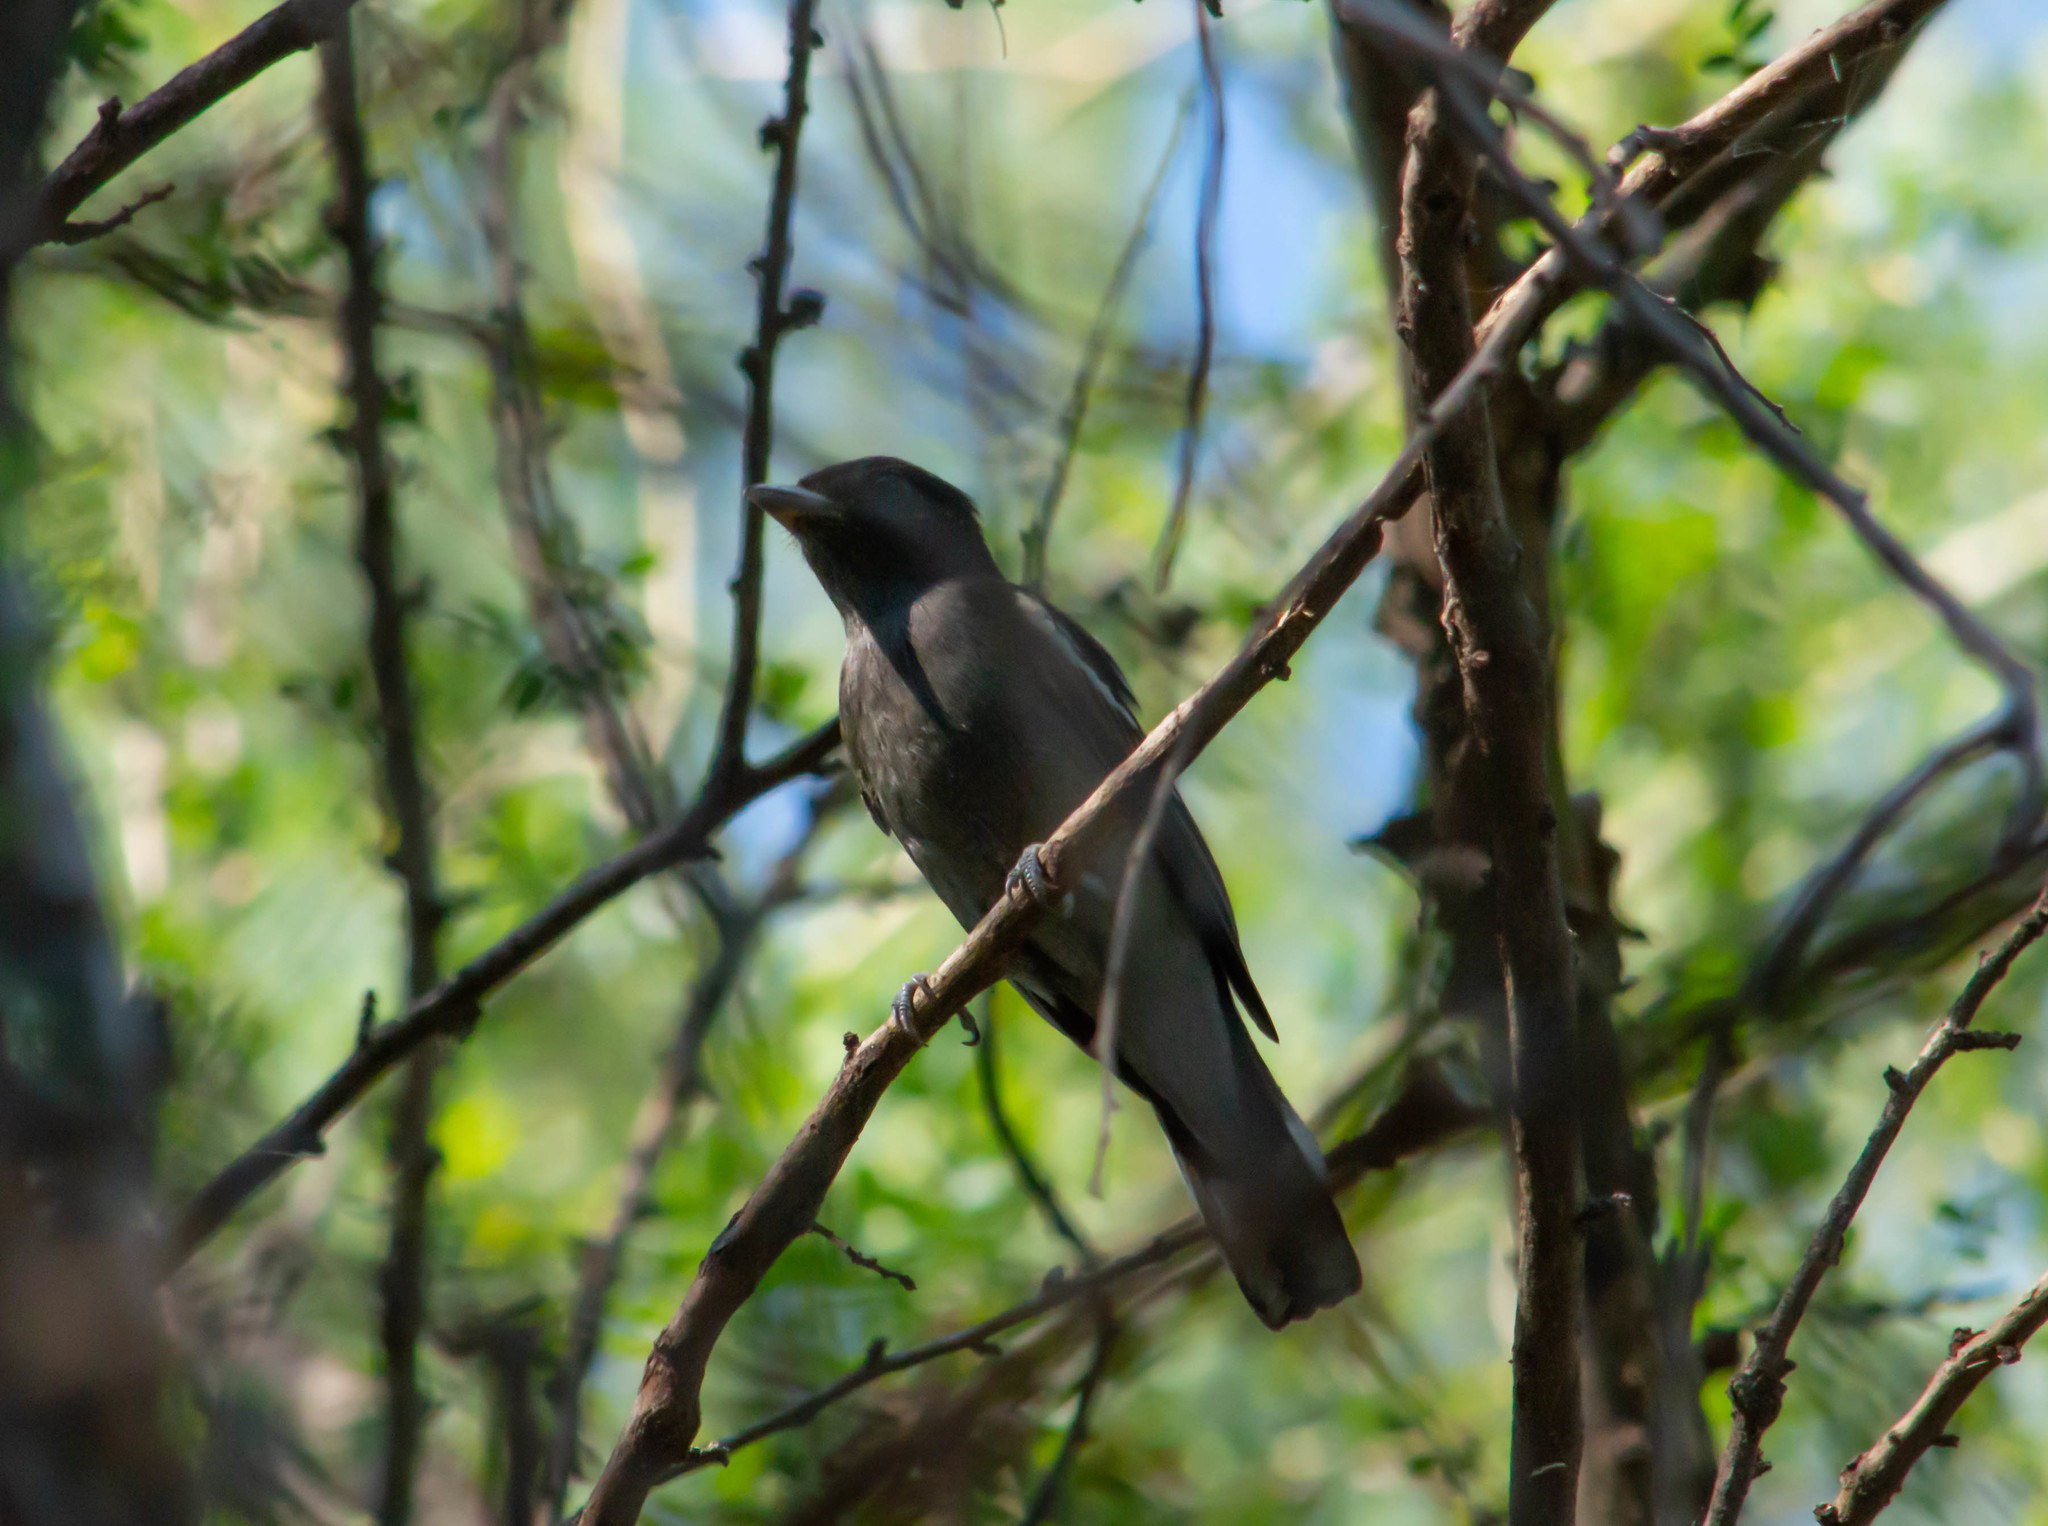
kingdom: Animalia
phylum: Chordata
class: Aves
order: Passeriformes
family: Cotingidae
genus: Pachyramphus
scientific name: Pachyramphus polychopterus
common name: White-winged becard
